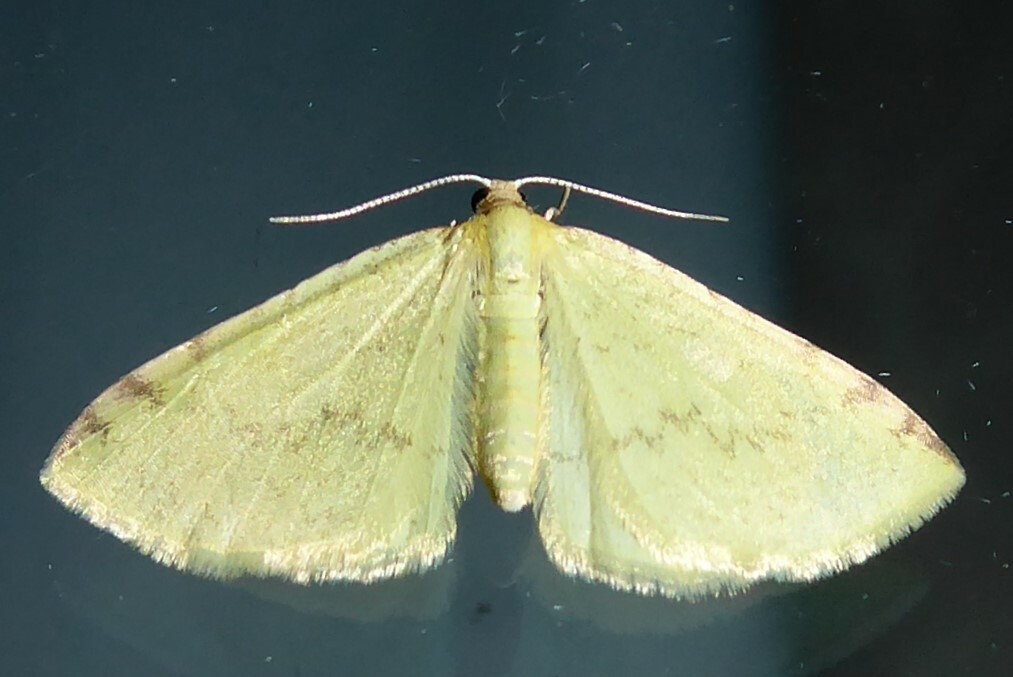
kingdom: Animalia
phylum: Arthropoda
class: Insecta
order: Lepidoptera
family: Geometridae
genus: Epiphryne
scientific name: Epiphryne undosata
